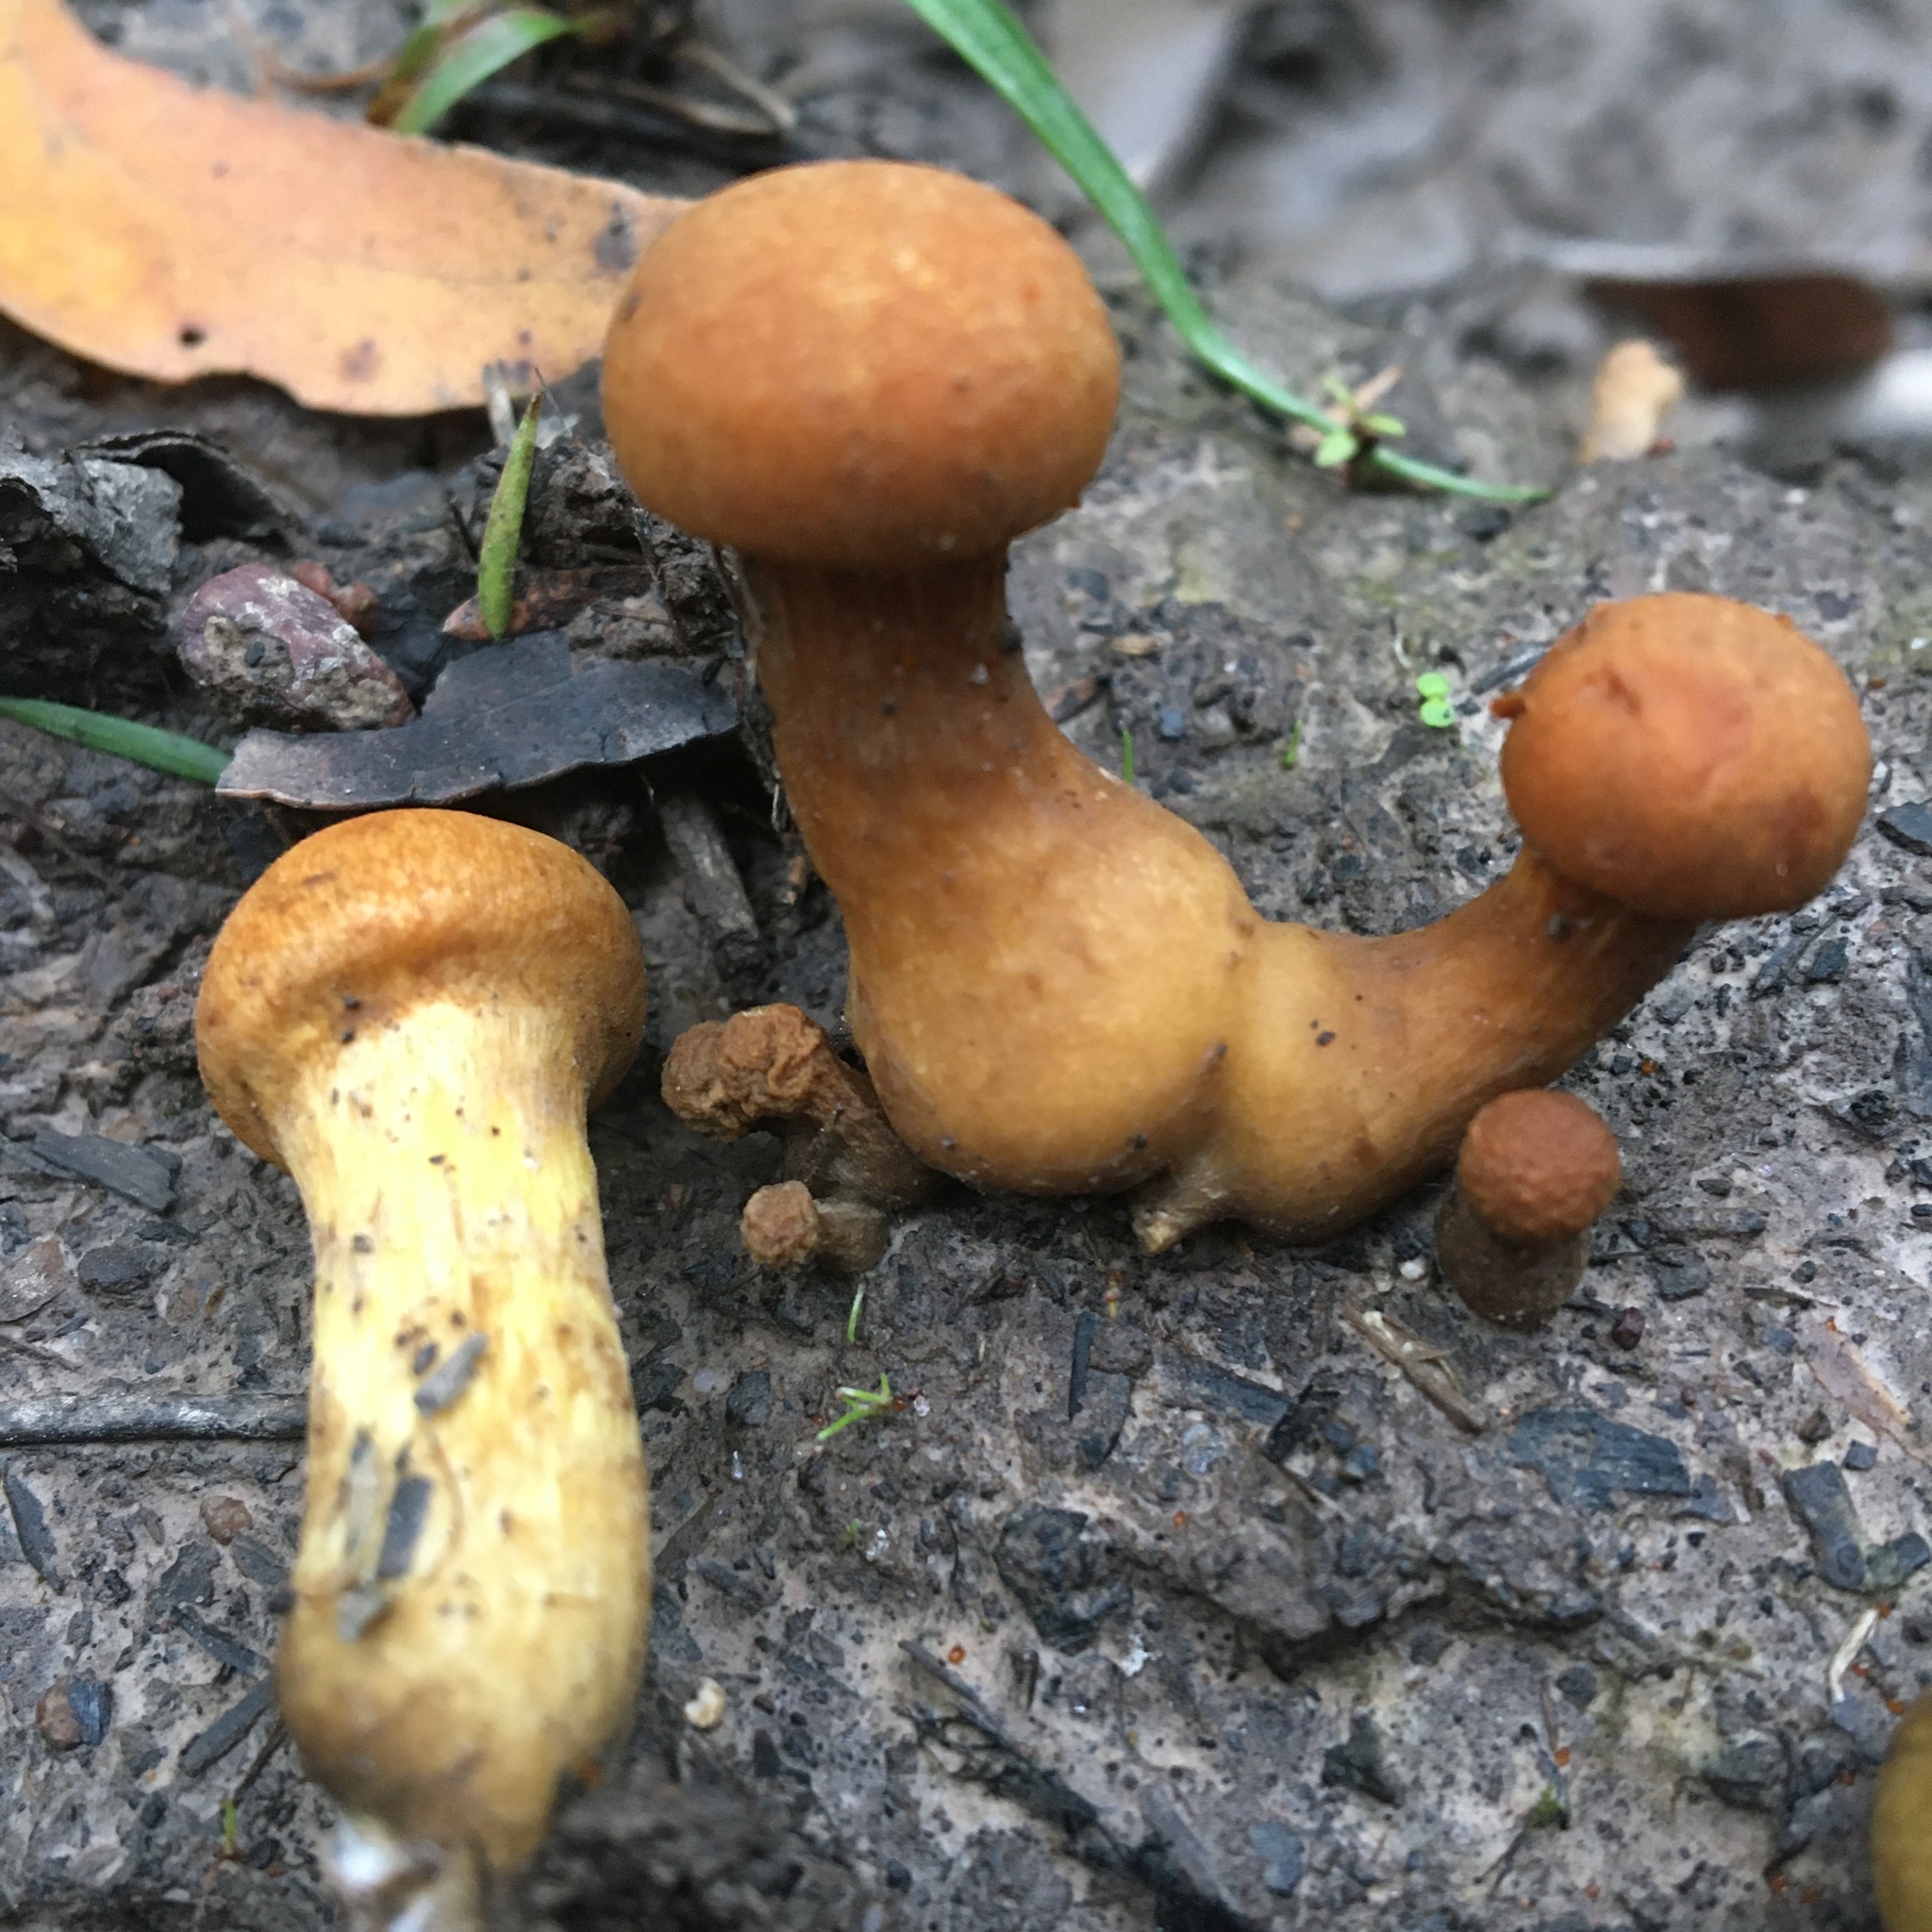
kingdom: Fungi
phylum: Basidiomycota
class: Agaricomycetes
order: Agaricales
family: Hymenogastraceae
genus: Gymnopilus
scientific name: Gymnopilus junonius
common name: Spectacular rustgill
